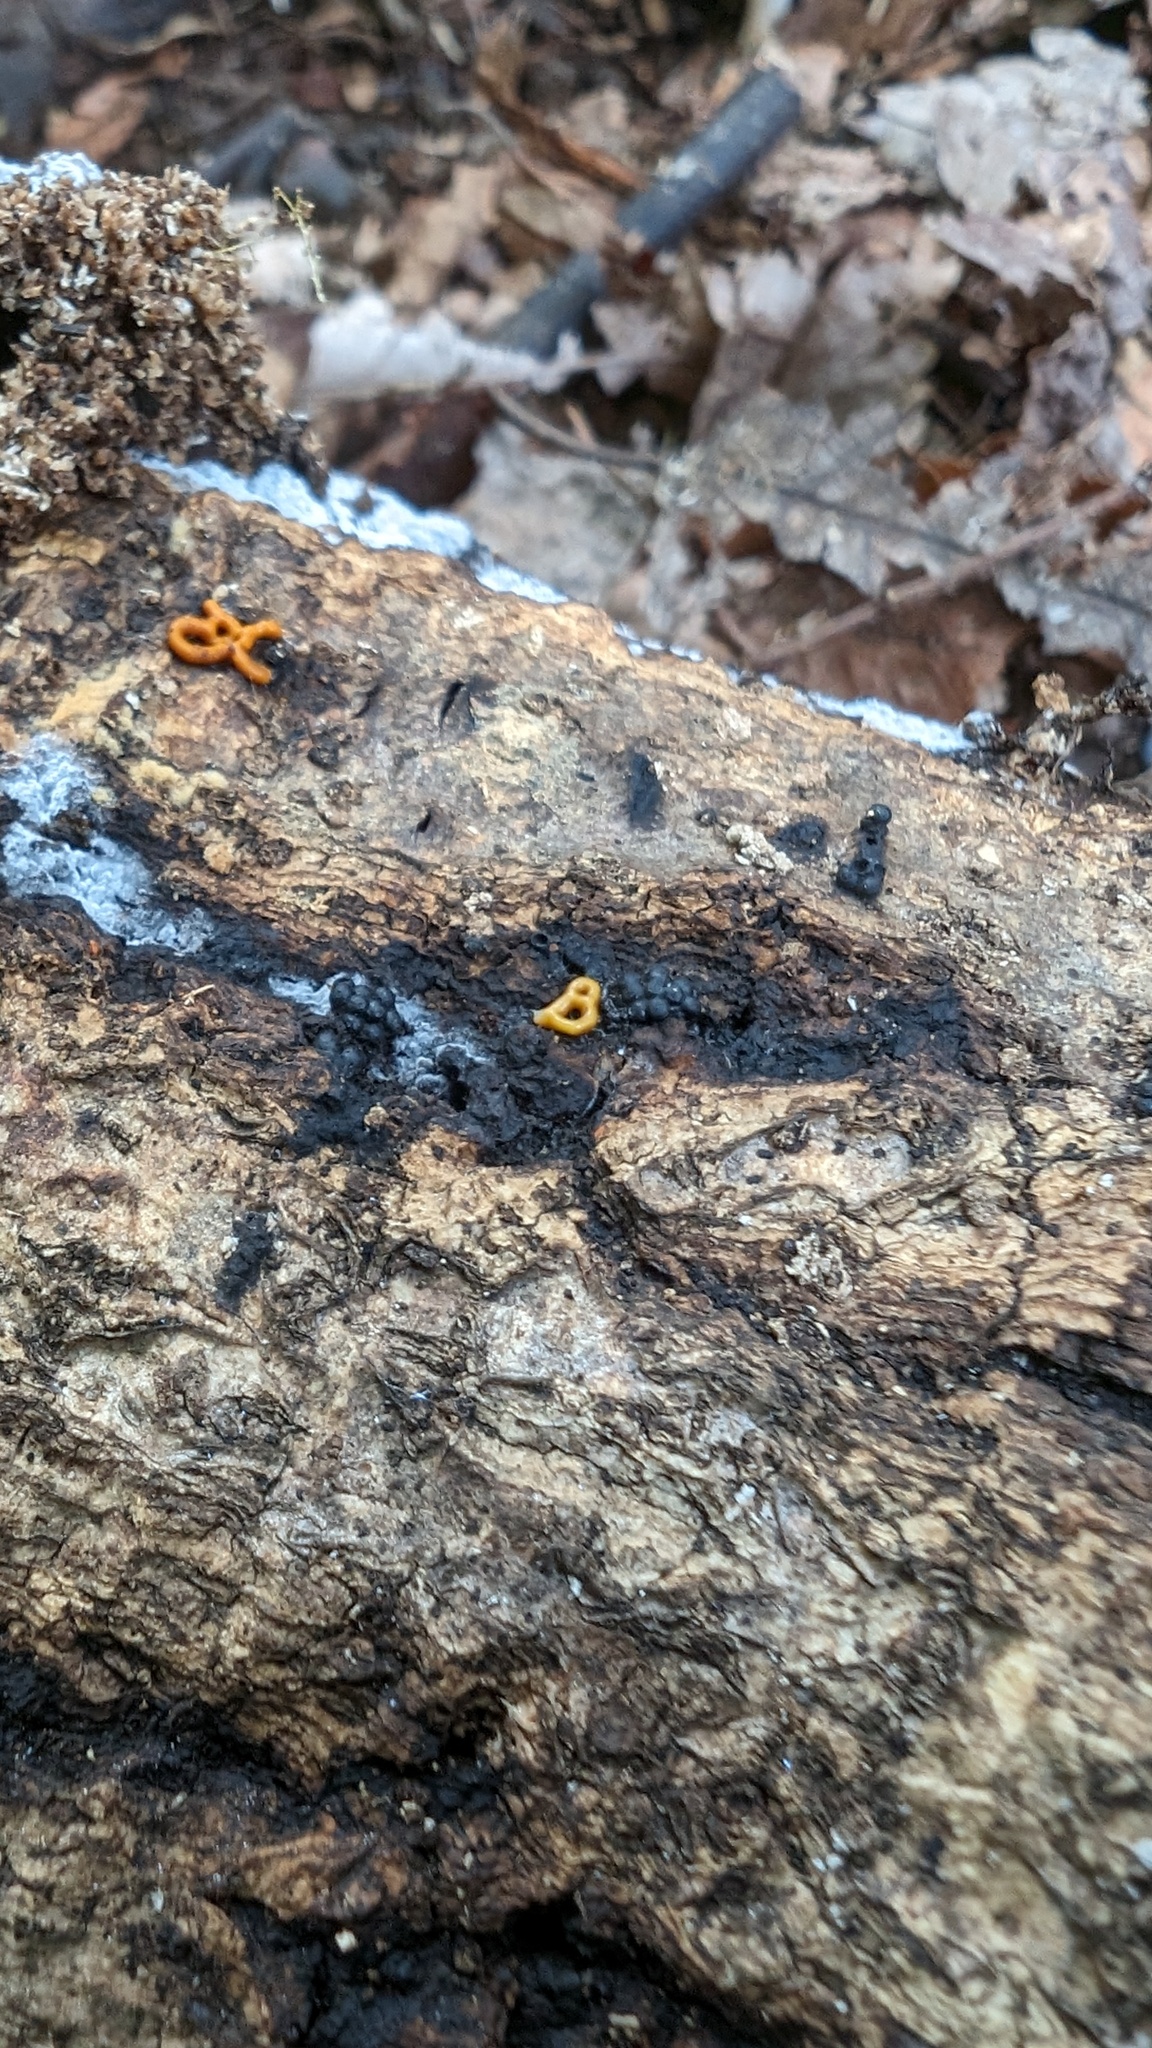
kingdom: Protozoa
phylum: Mycetozoa
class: Myxomycetes
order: Trichiales
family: Arcyriaceae
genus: Hemitrichia
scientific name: Hemitrichia serpula
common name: Pretzel slime mold
